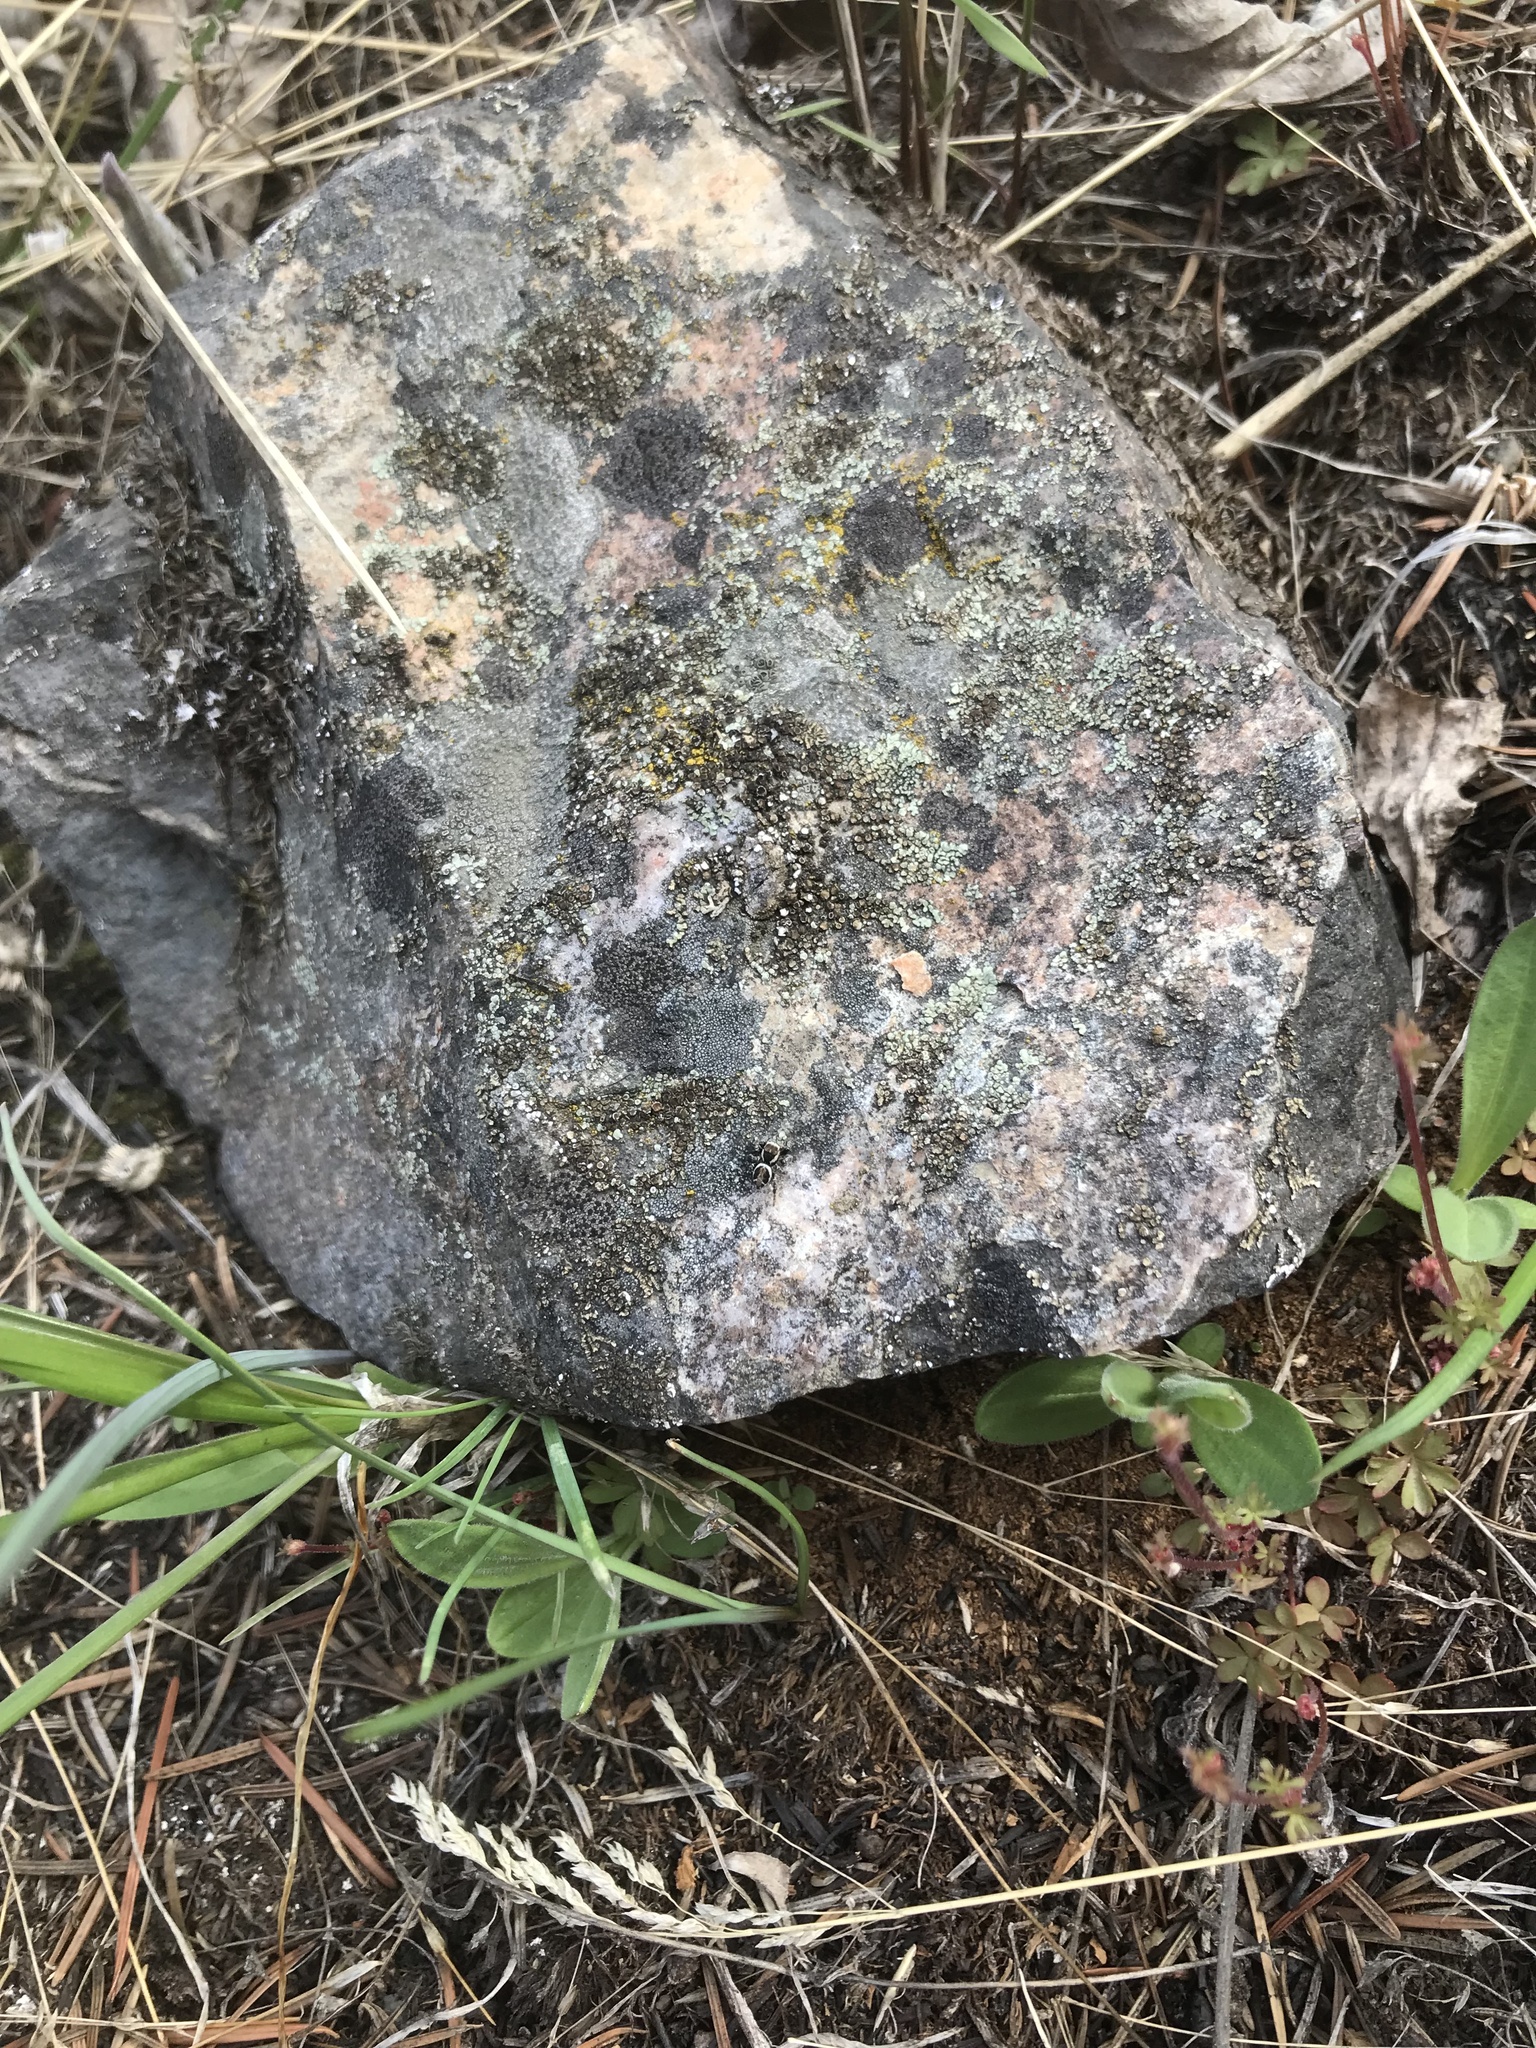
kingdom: Animalia
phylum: Arthropoda
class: Arachnida
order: Araneae
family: Salticidae
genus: Evarcha
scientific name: Evarcha proszynskii
